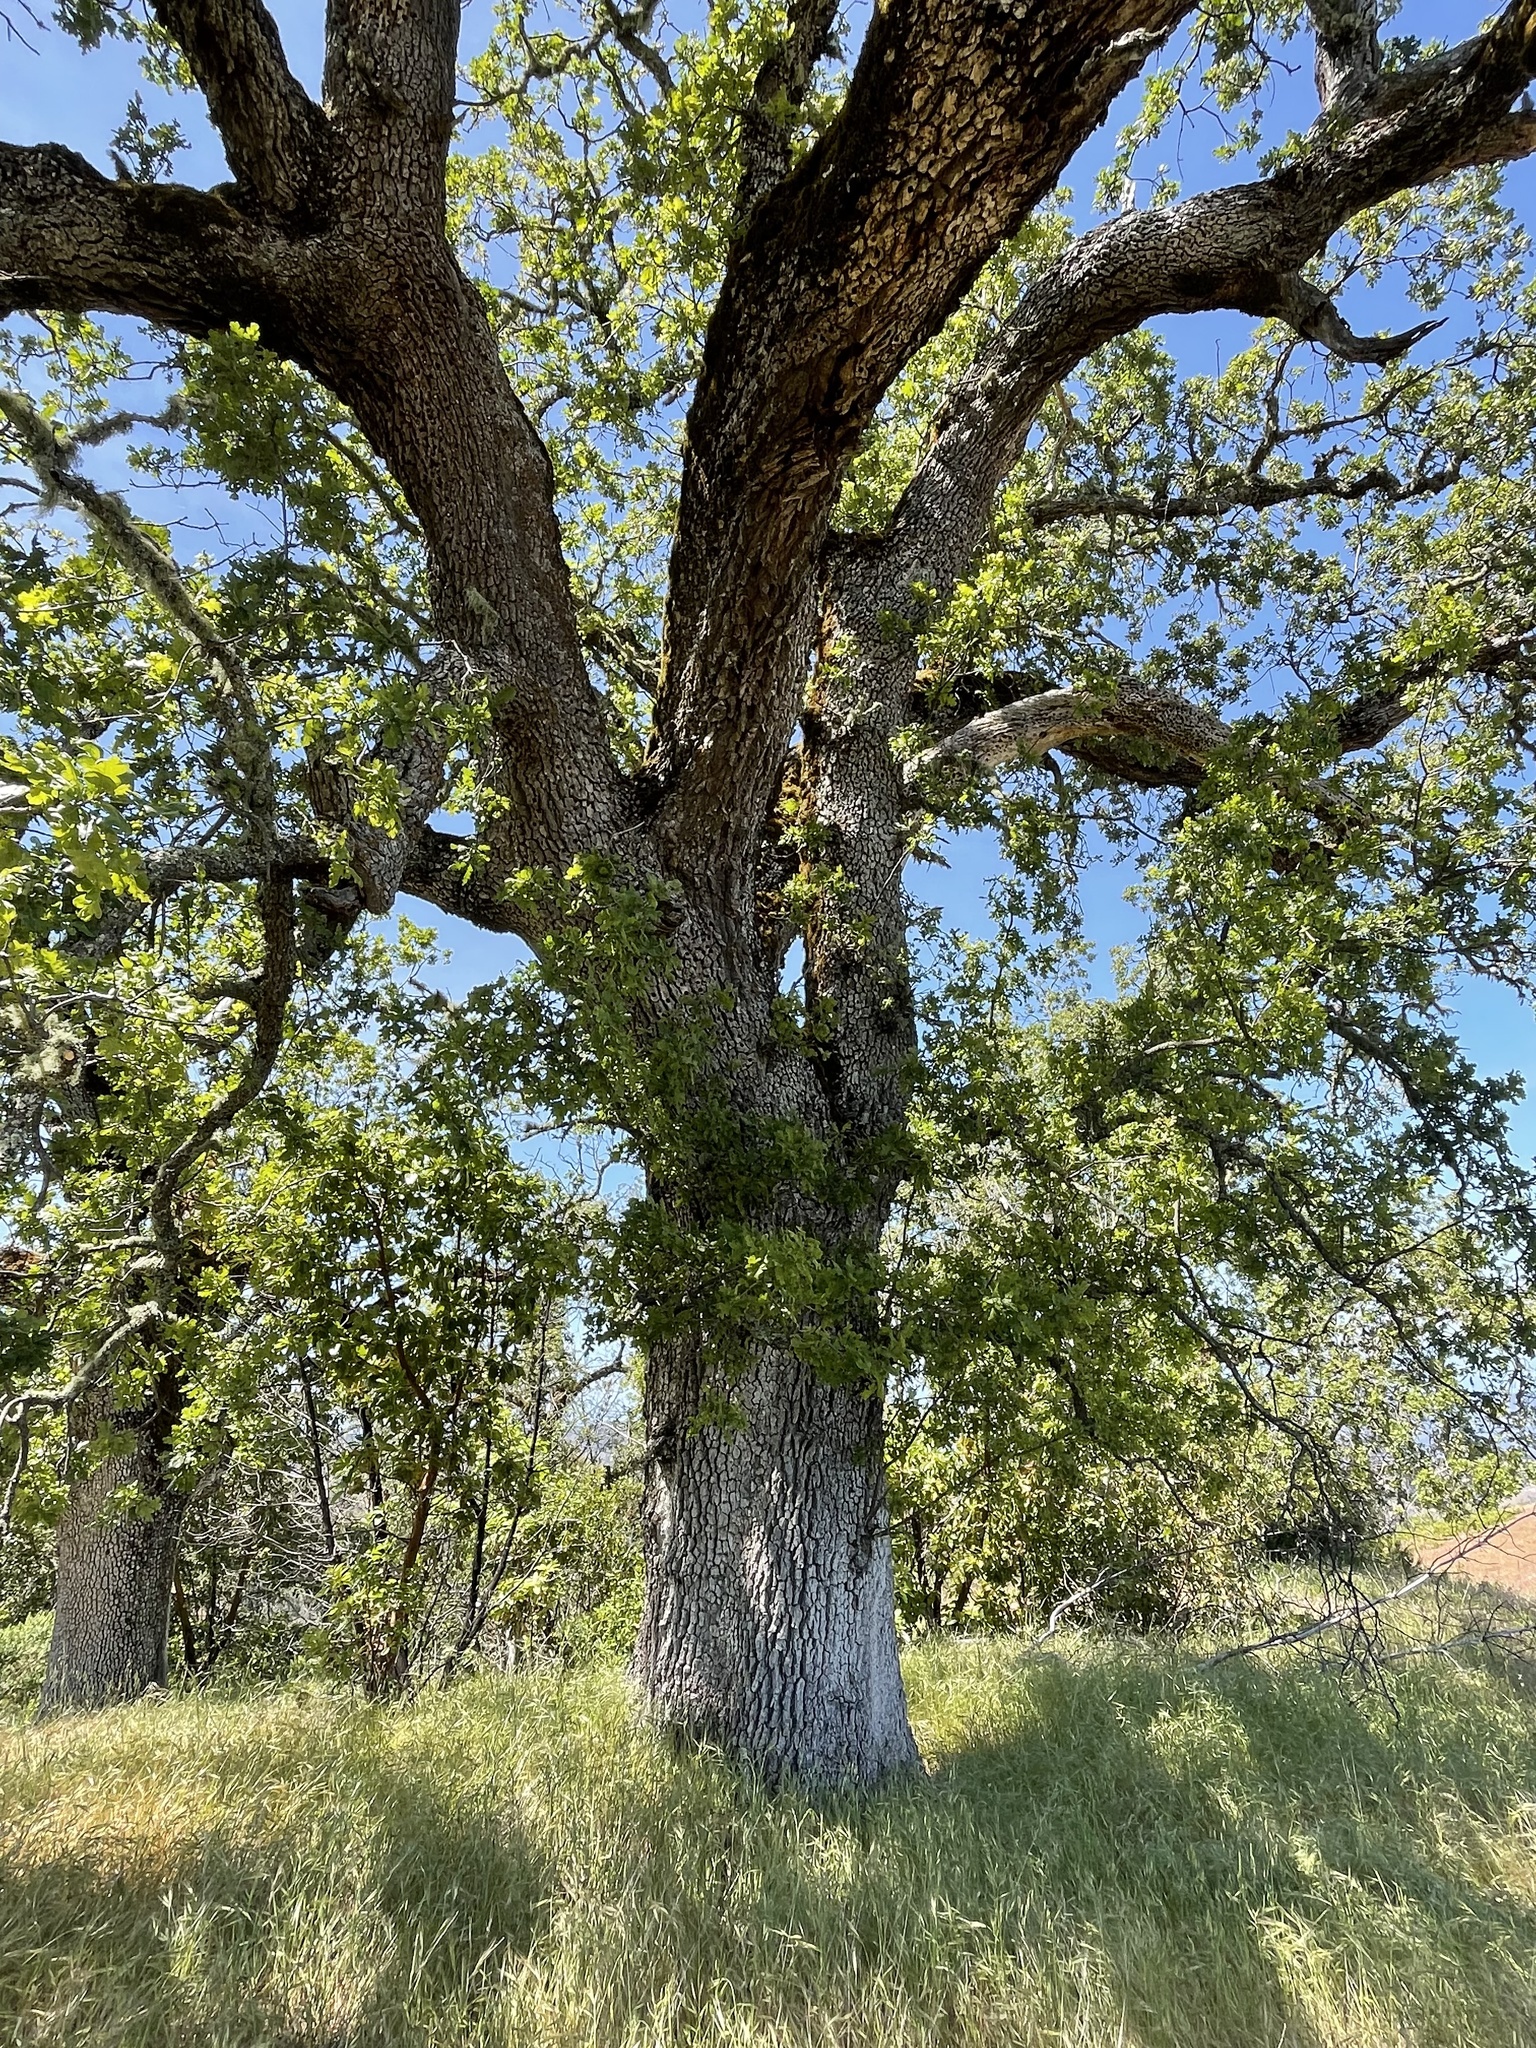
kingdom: Plantae
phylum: Tracheophyta
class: Magnoliopsida
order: Fagales
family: Fagaceae
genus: Quercus
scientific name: Quercus lobata
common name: Valley oak
